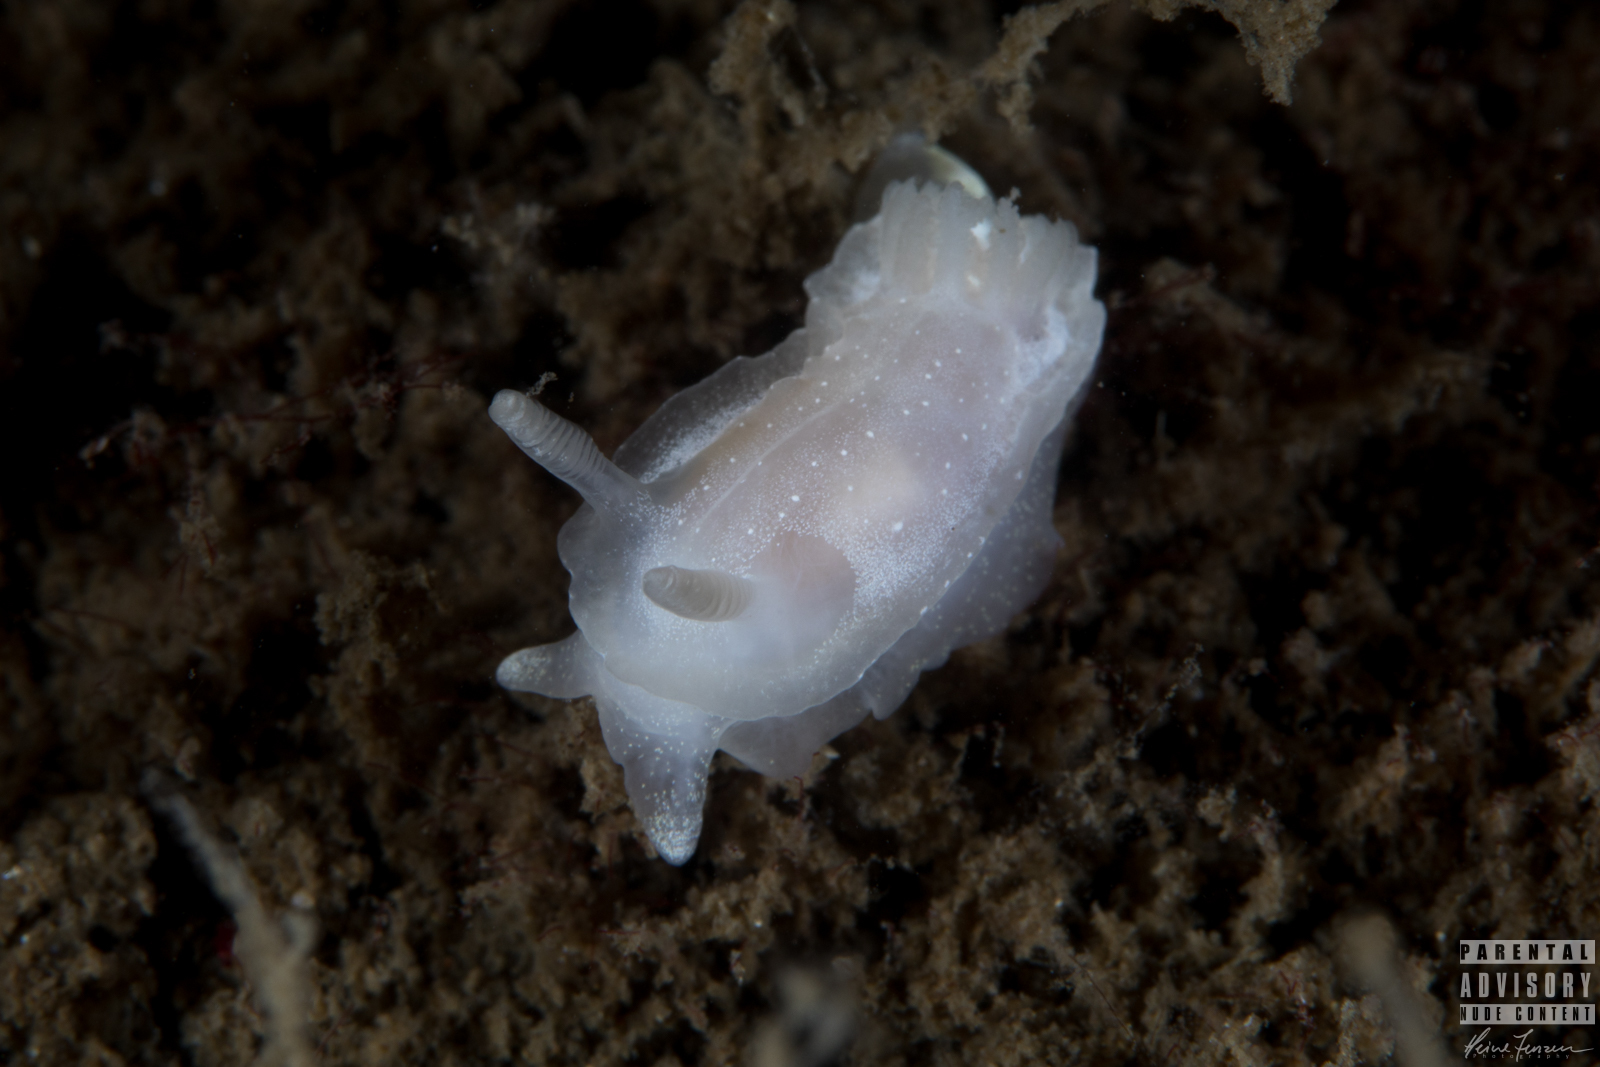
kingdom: Animalia
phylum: Mollusca
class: Gastropoda
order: Nudibranchia
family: Goniodorididae
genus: Okenia
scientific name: Okenia
